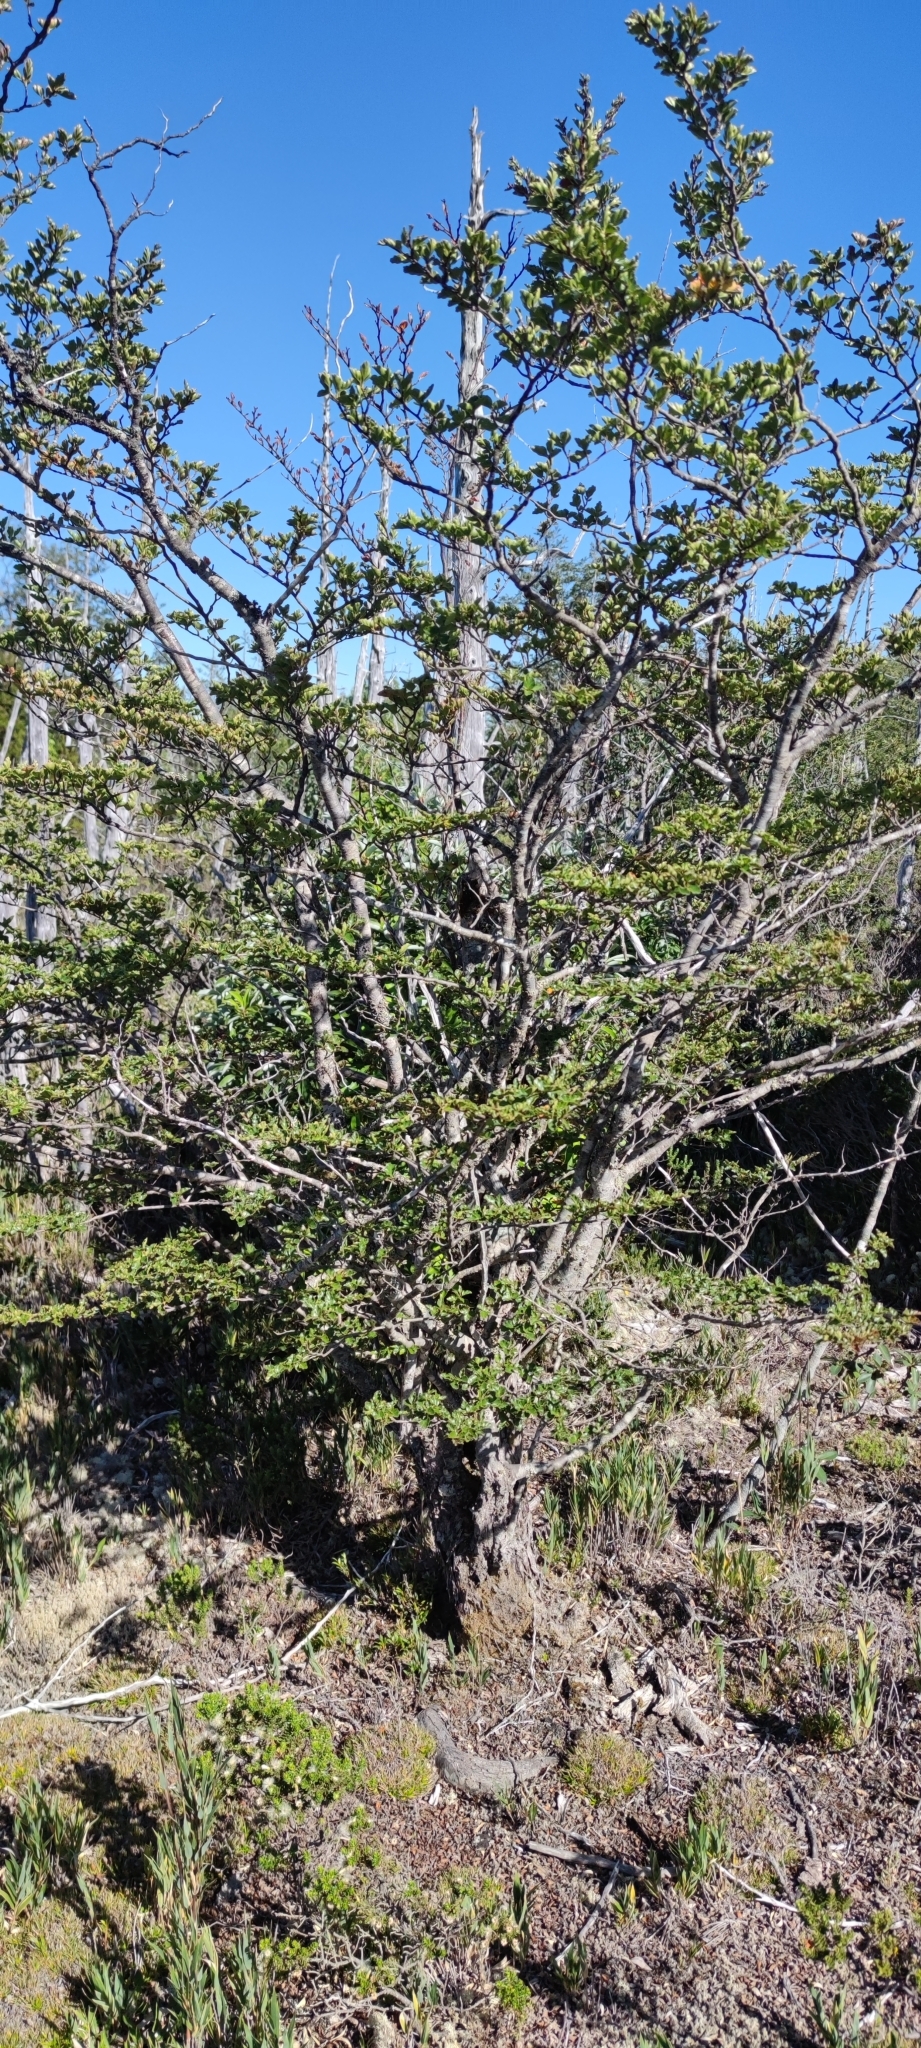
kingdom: Plantae
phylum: Tracheophyta
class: Magnoliopsida
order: Fagales
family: Nothofagaceae
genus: Nothofagus
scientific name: Nothofagus antarctica
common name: Antarctic beech
